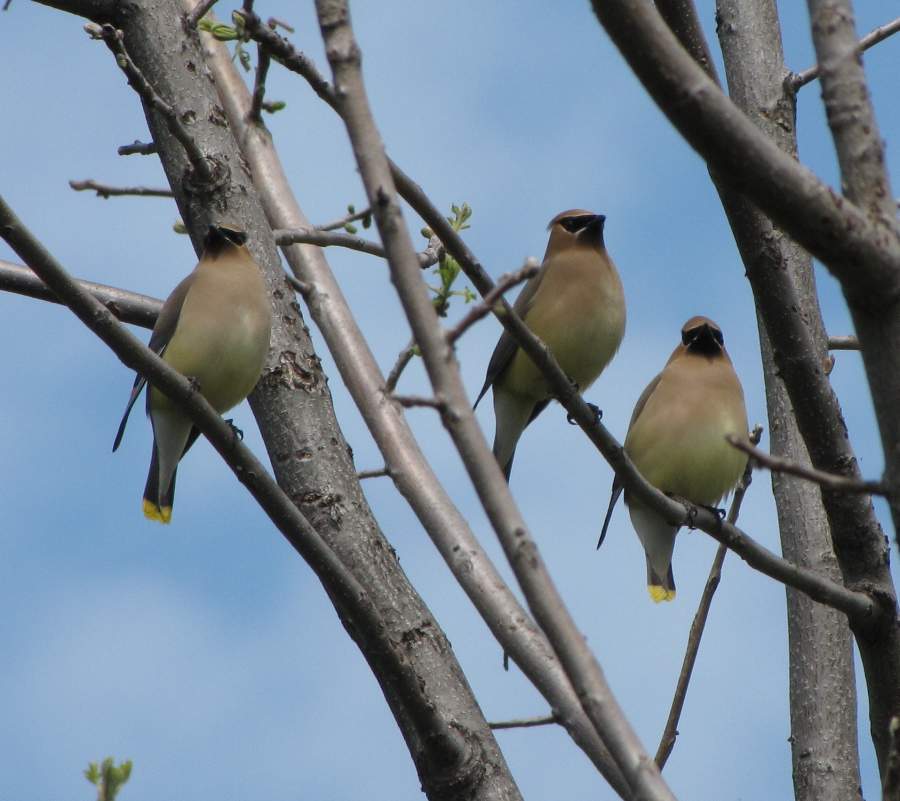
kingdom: Animalia
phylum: Chordata
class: Aves
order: Passeriformes
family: Bombycillidae
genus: Bombycilla
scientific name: Bombycilla cedrorum
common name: Cedar waxwing
